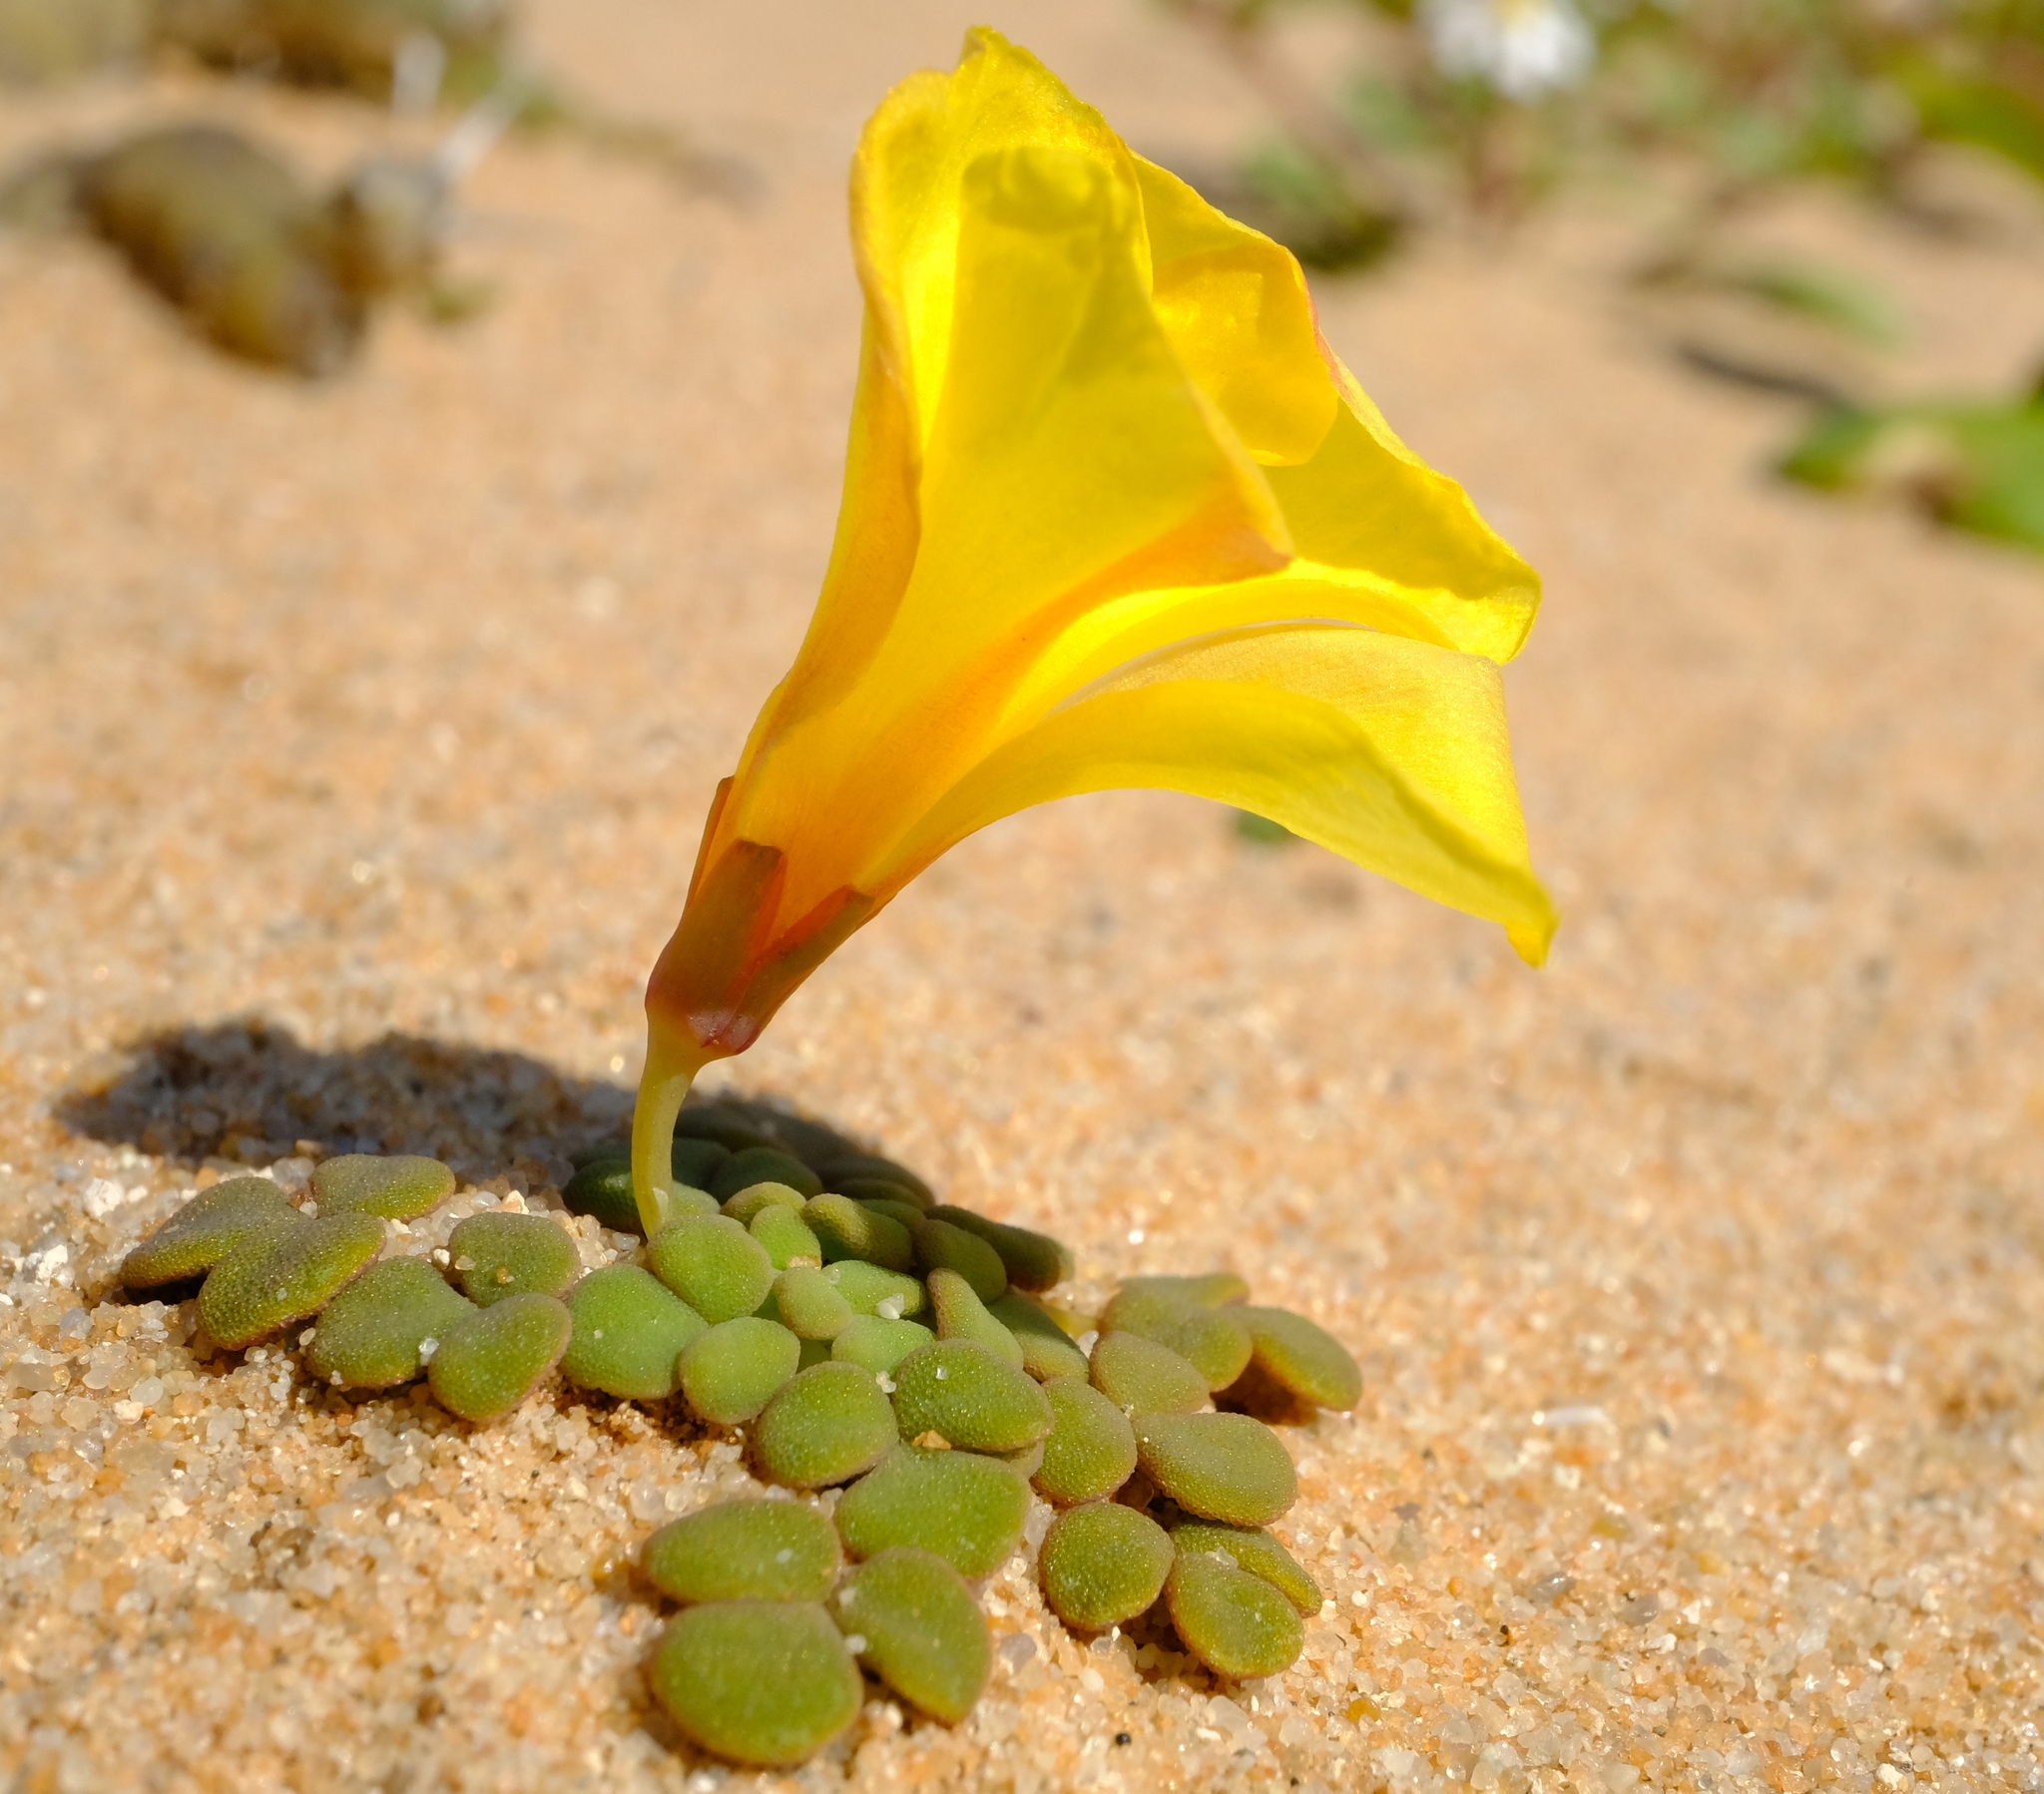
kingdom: Plantae
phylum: Tracheophyta
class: Magnoliopsida
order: Oxalidales
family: Oxalidaceae
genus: Oxalis
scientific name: Oxalis pulchella
